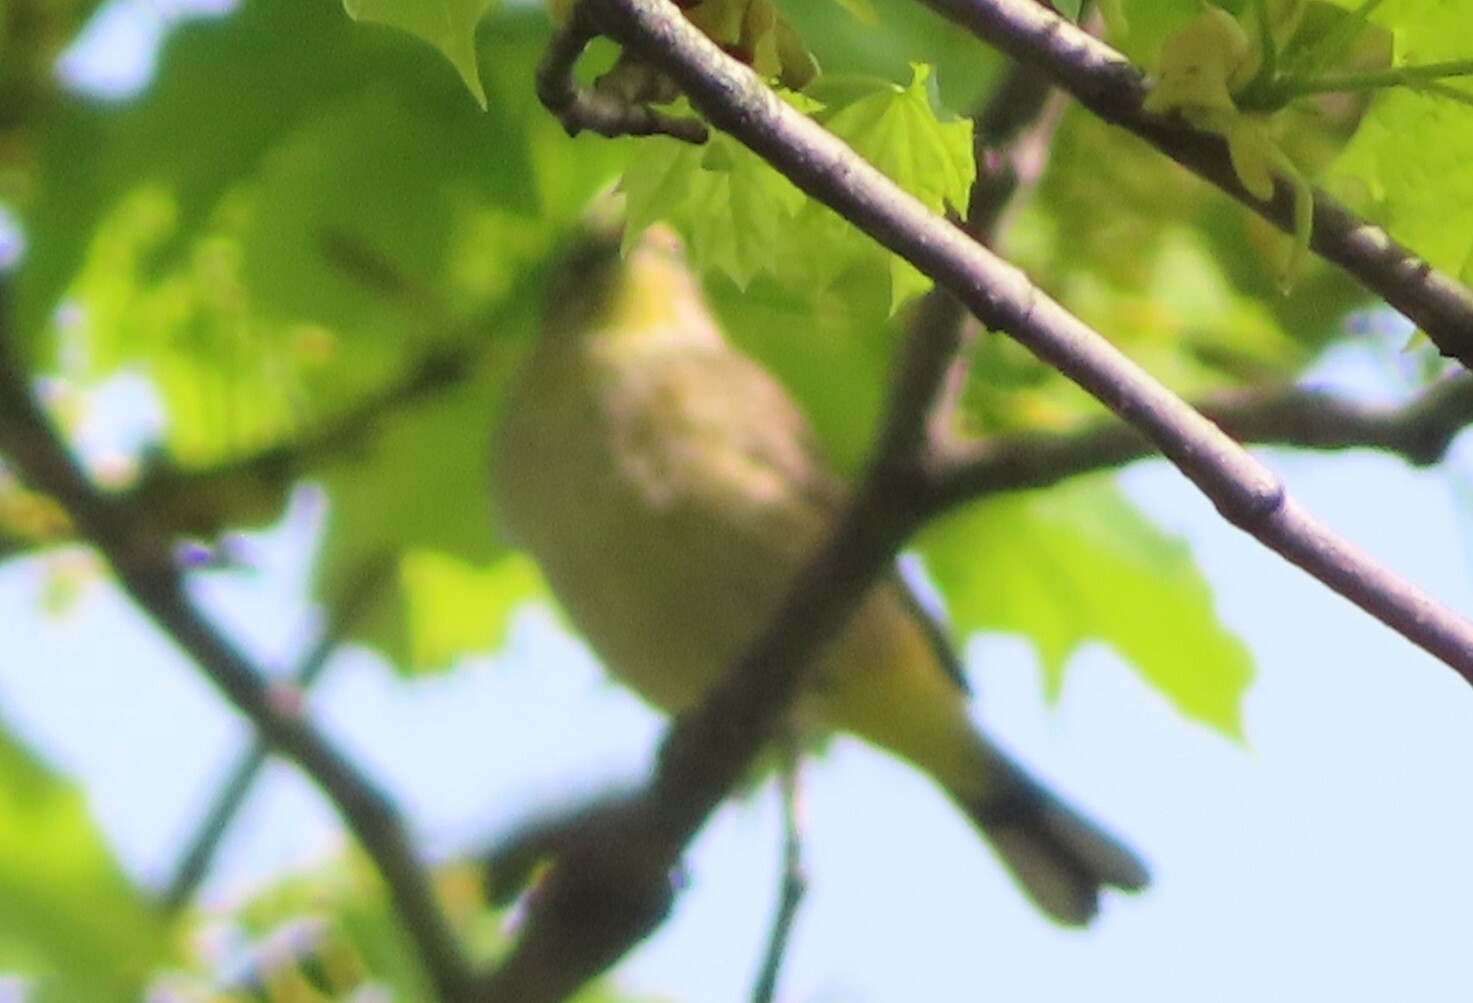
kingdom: Animalia
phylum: Chordata
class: Aves
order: Passeriformes
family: Parulidae
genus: Setophaga
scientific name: Setophaga palmarum
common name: Palm warbler
